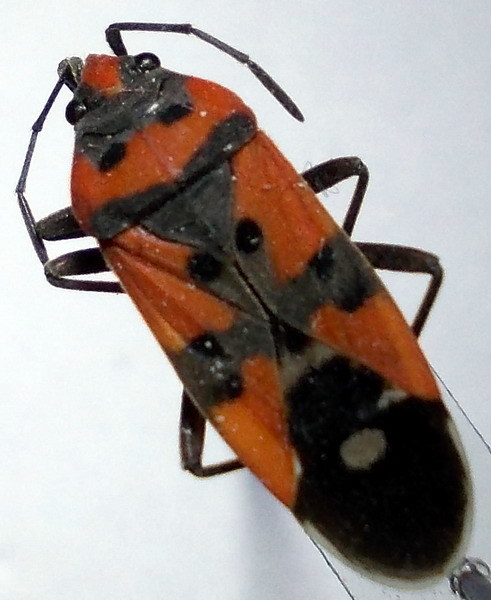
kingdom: Animalia
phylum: Arthropoda
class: Insecta
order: Hemiptera
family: Lygaeidae
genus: Lygaeus
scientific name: Lygaeus equestris
